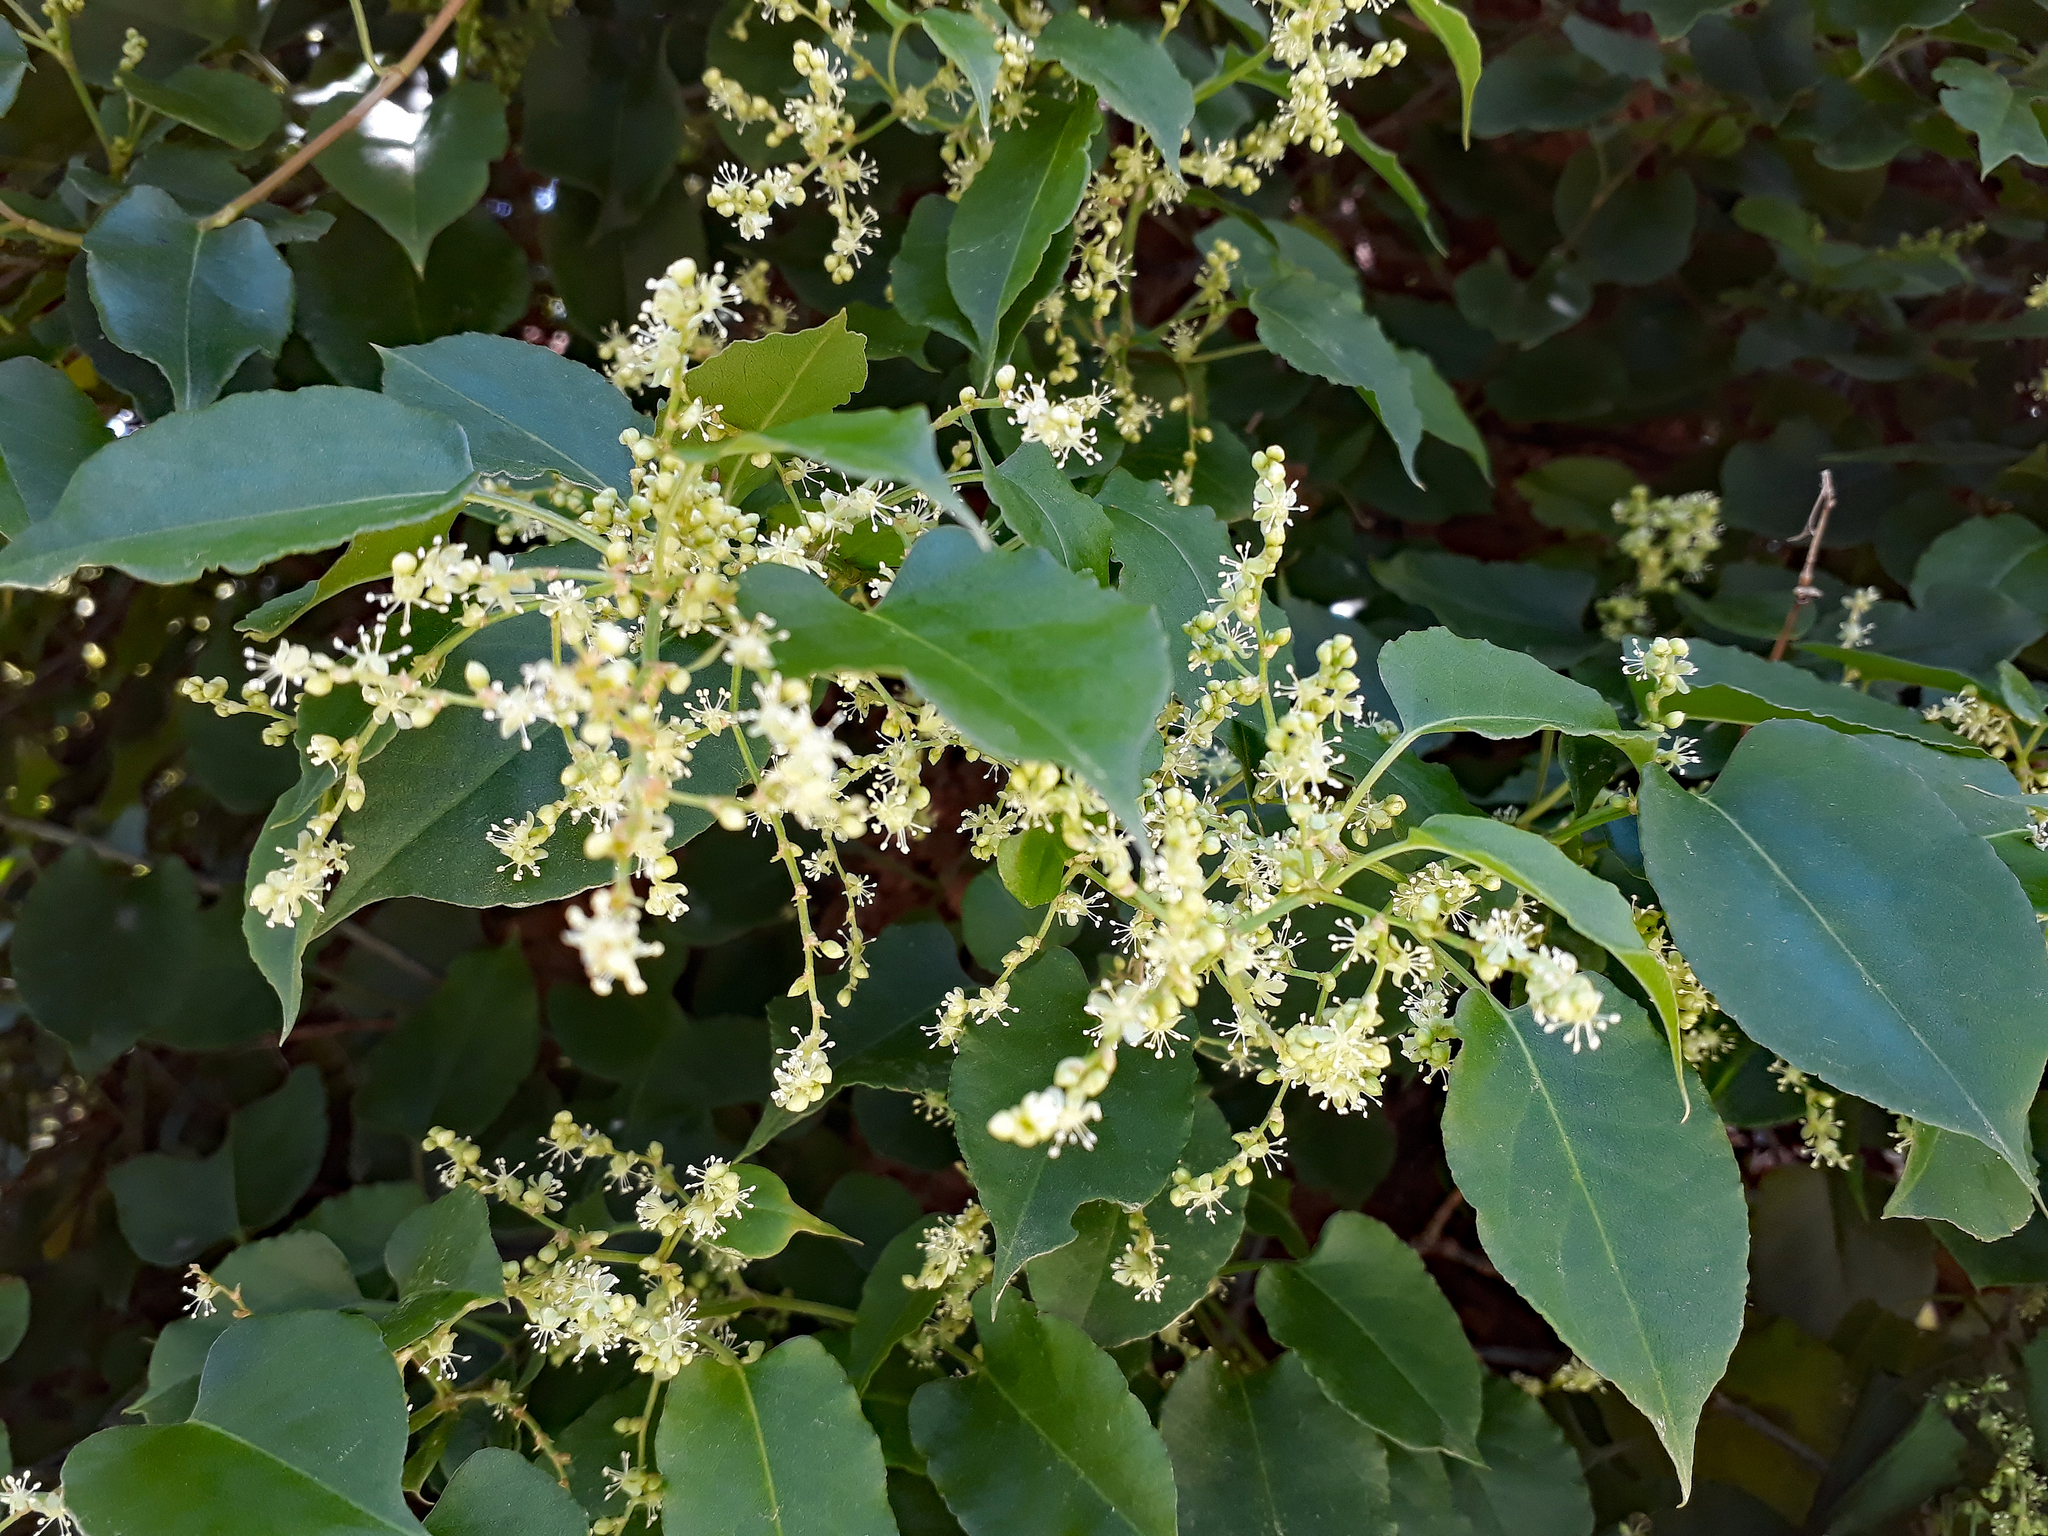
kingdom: Plantae
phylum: Tracheophyta
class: Magnoliopsida
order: Caryophyllales
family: Polygonaceae
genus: Muehlenbeckia
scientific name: Muehlenbeckia australis
